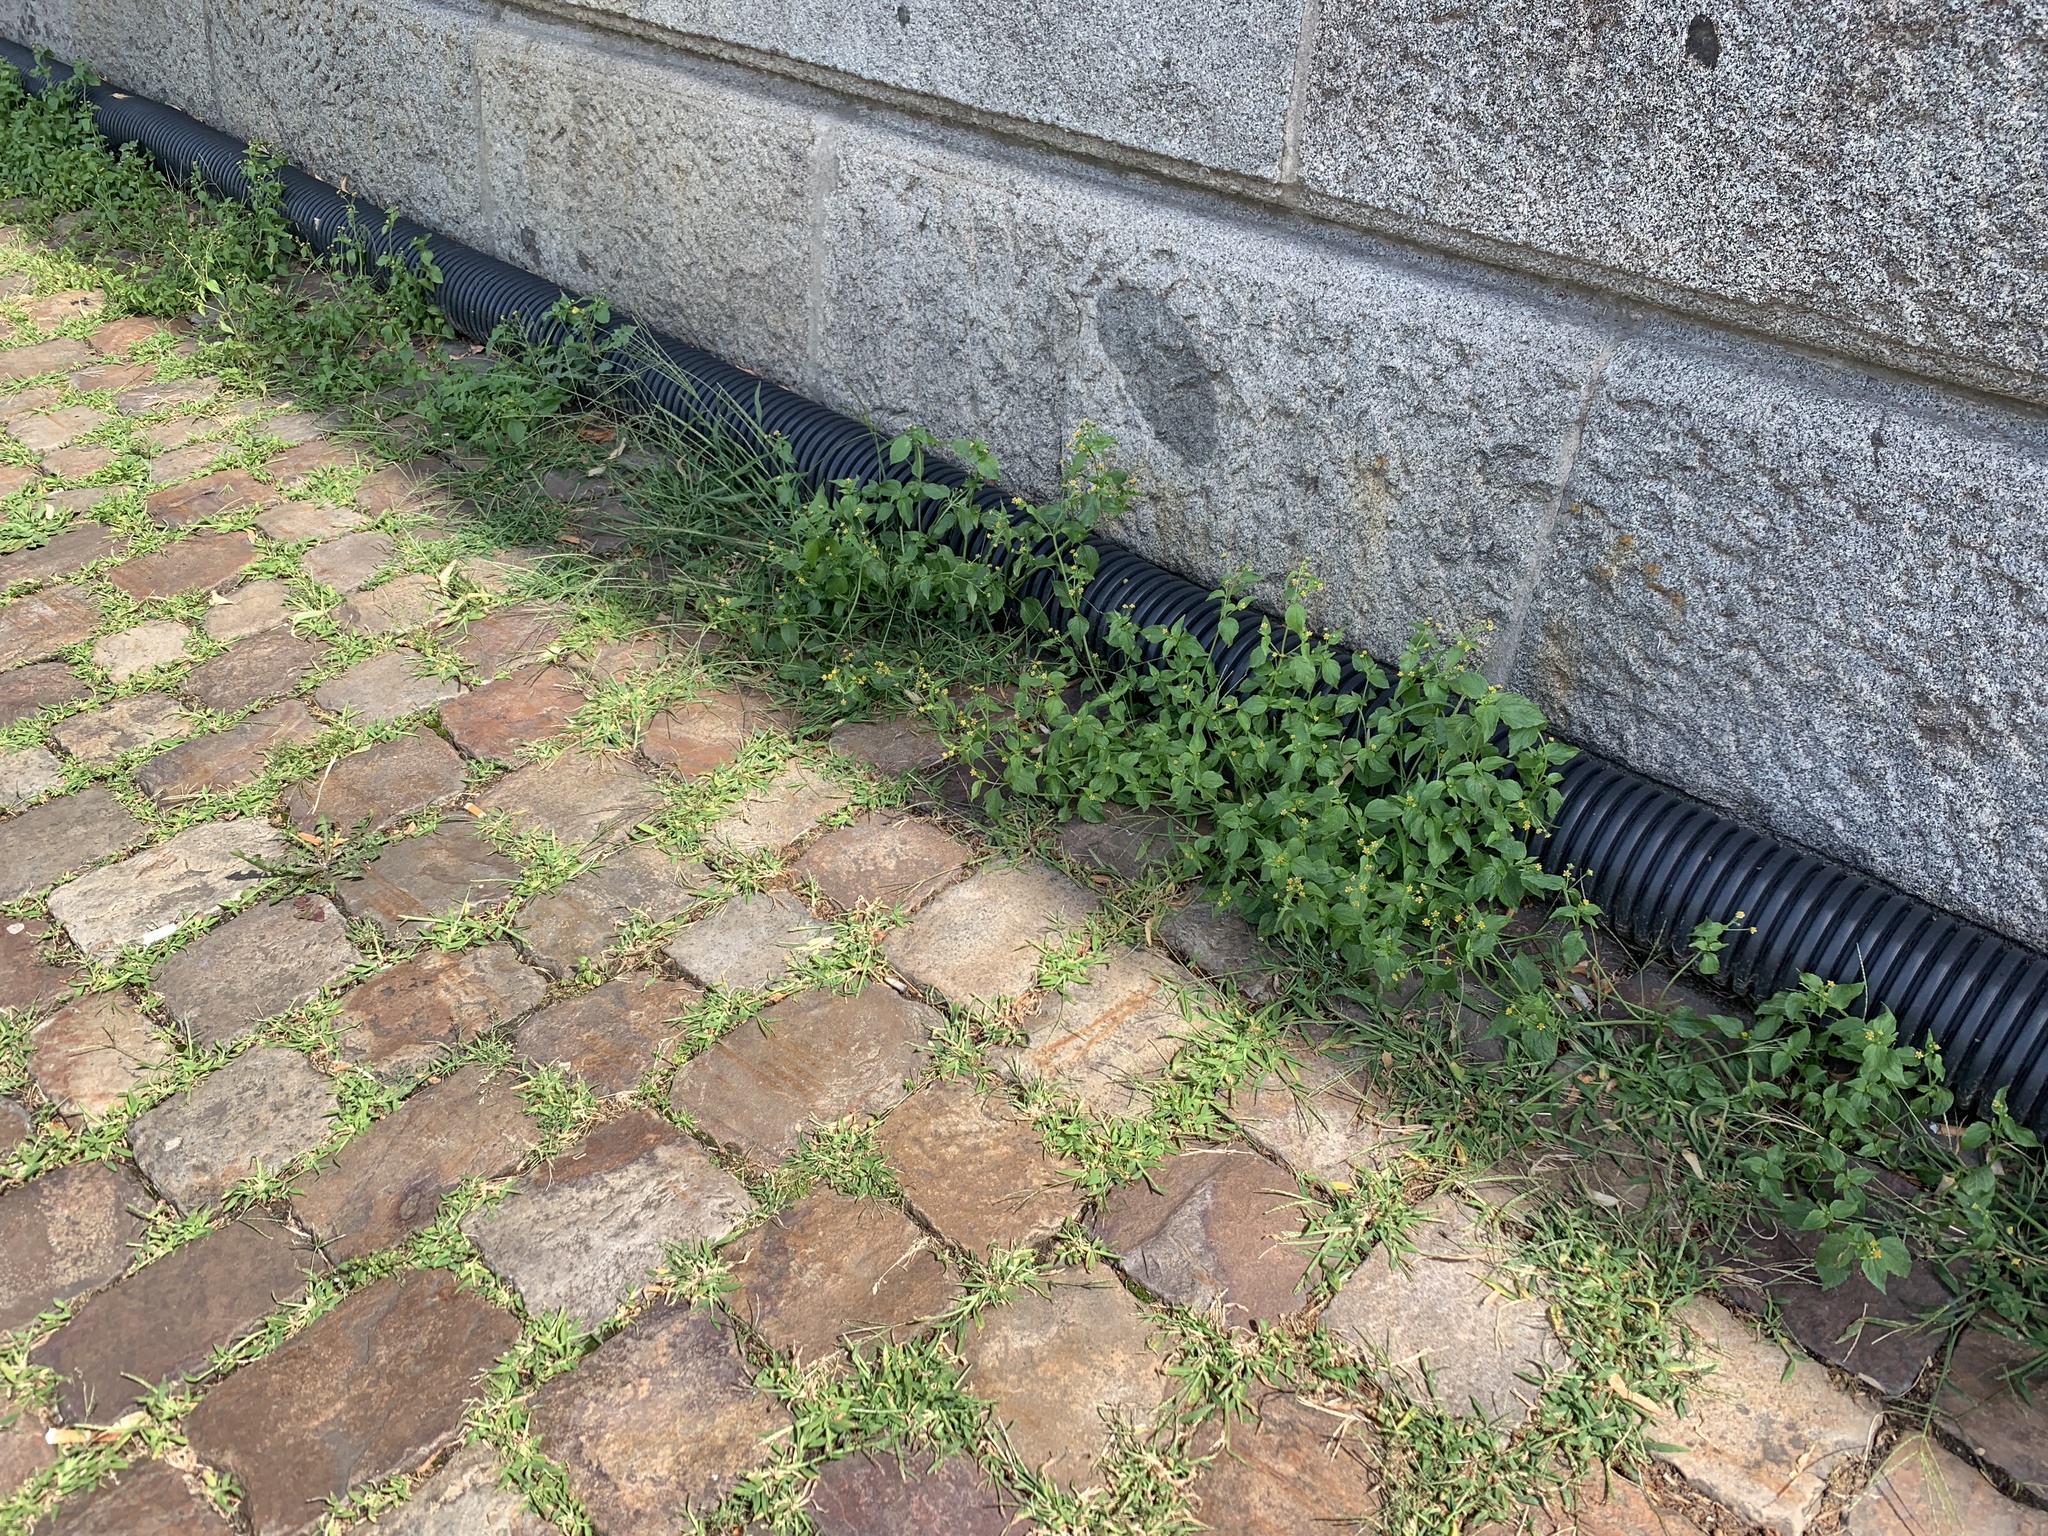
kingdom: Plantae
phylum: Tracheophyta
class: Magnoliopsida
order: Asterales
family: Asteraceae
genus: Galinsoga
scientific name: Galinsoga parviflora
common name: Gallant soldier
